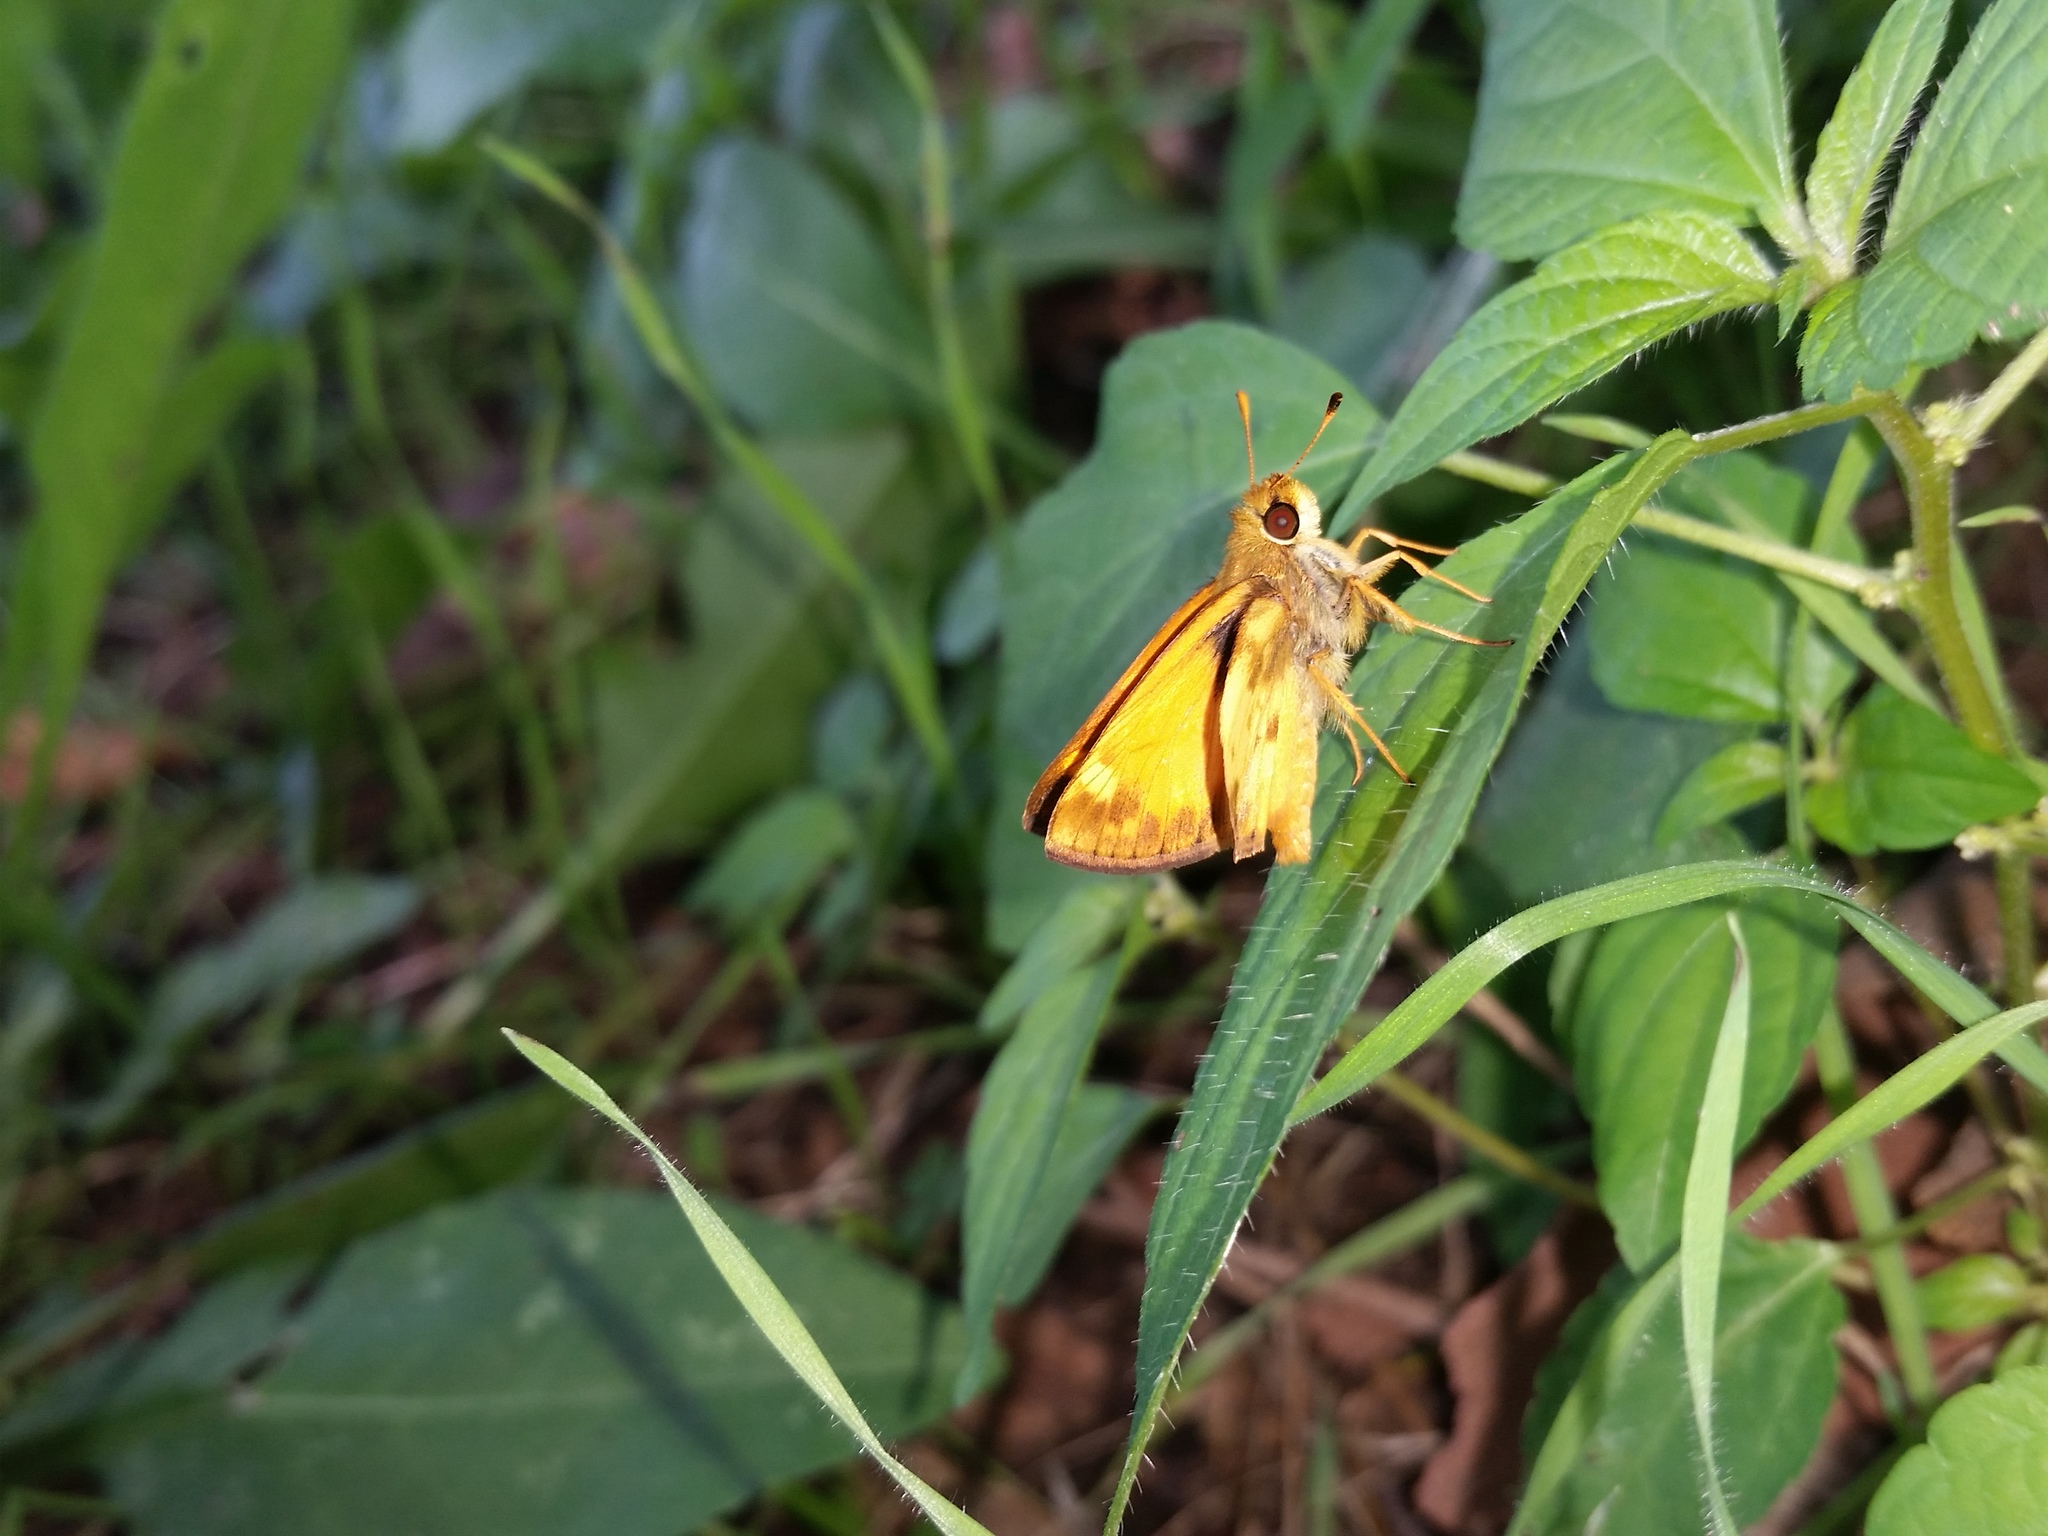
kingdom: Animalia
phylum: Arthropoda
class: Insecta
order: Lepidoptera
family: Hesperiidae
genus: Lon
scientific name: Lon zabulon
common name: Zabulon skipper
